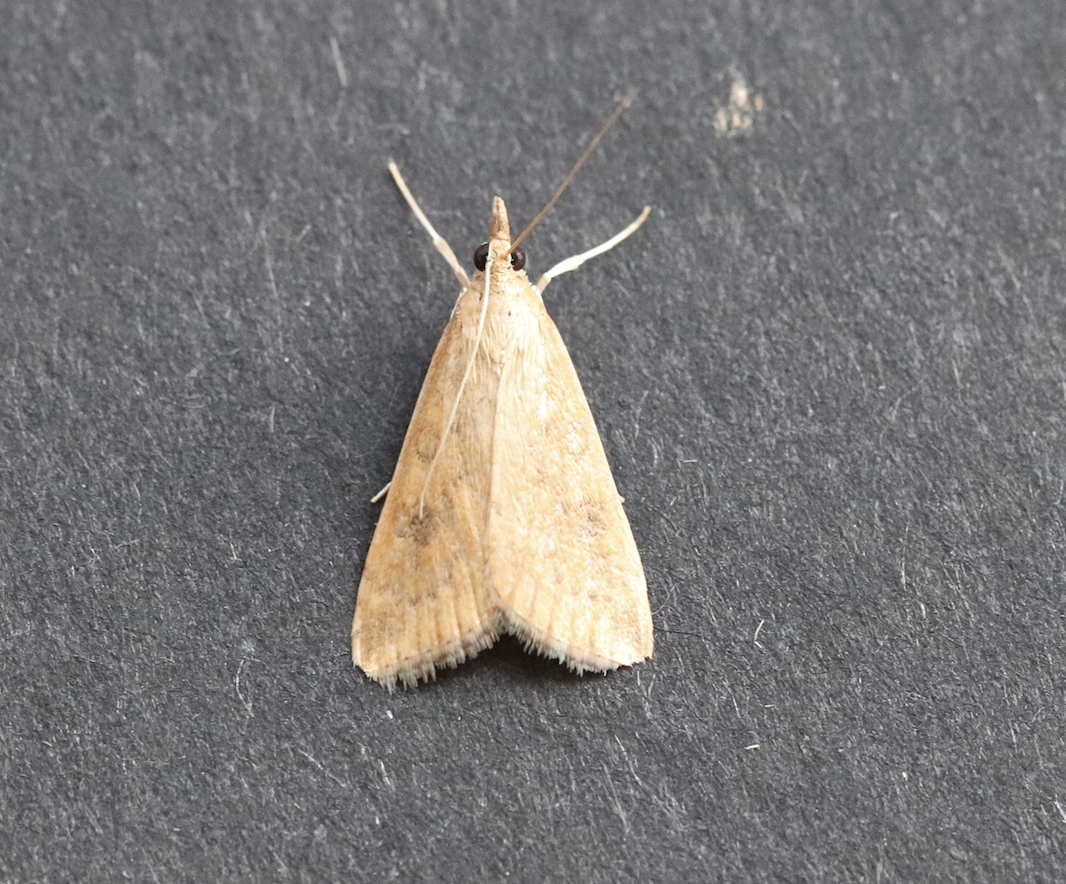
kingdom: Animalia
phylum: Arthropoda
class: Insecta
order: Lepidoptera
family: Crambidae
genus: Udea
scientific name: Udea ferrugalis
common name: Rusty dot
